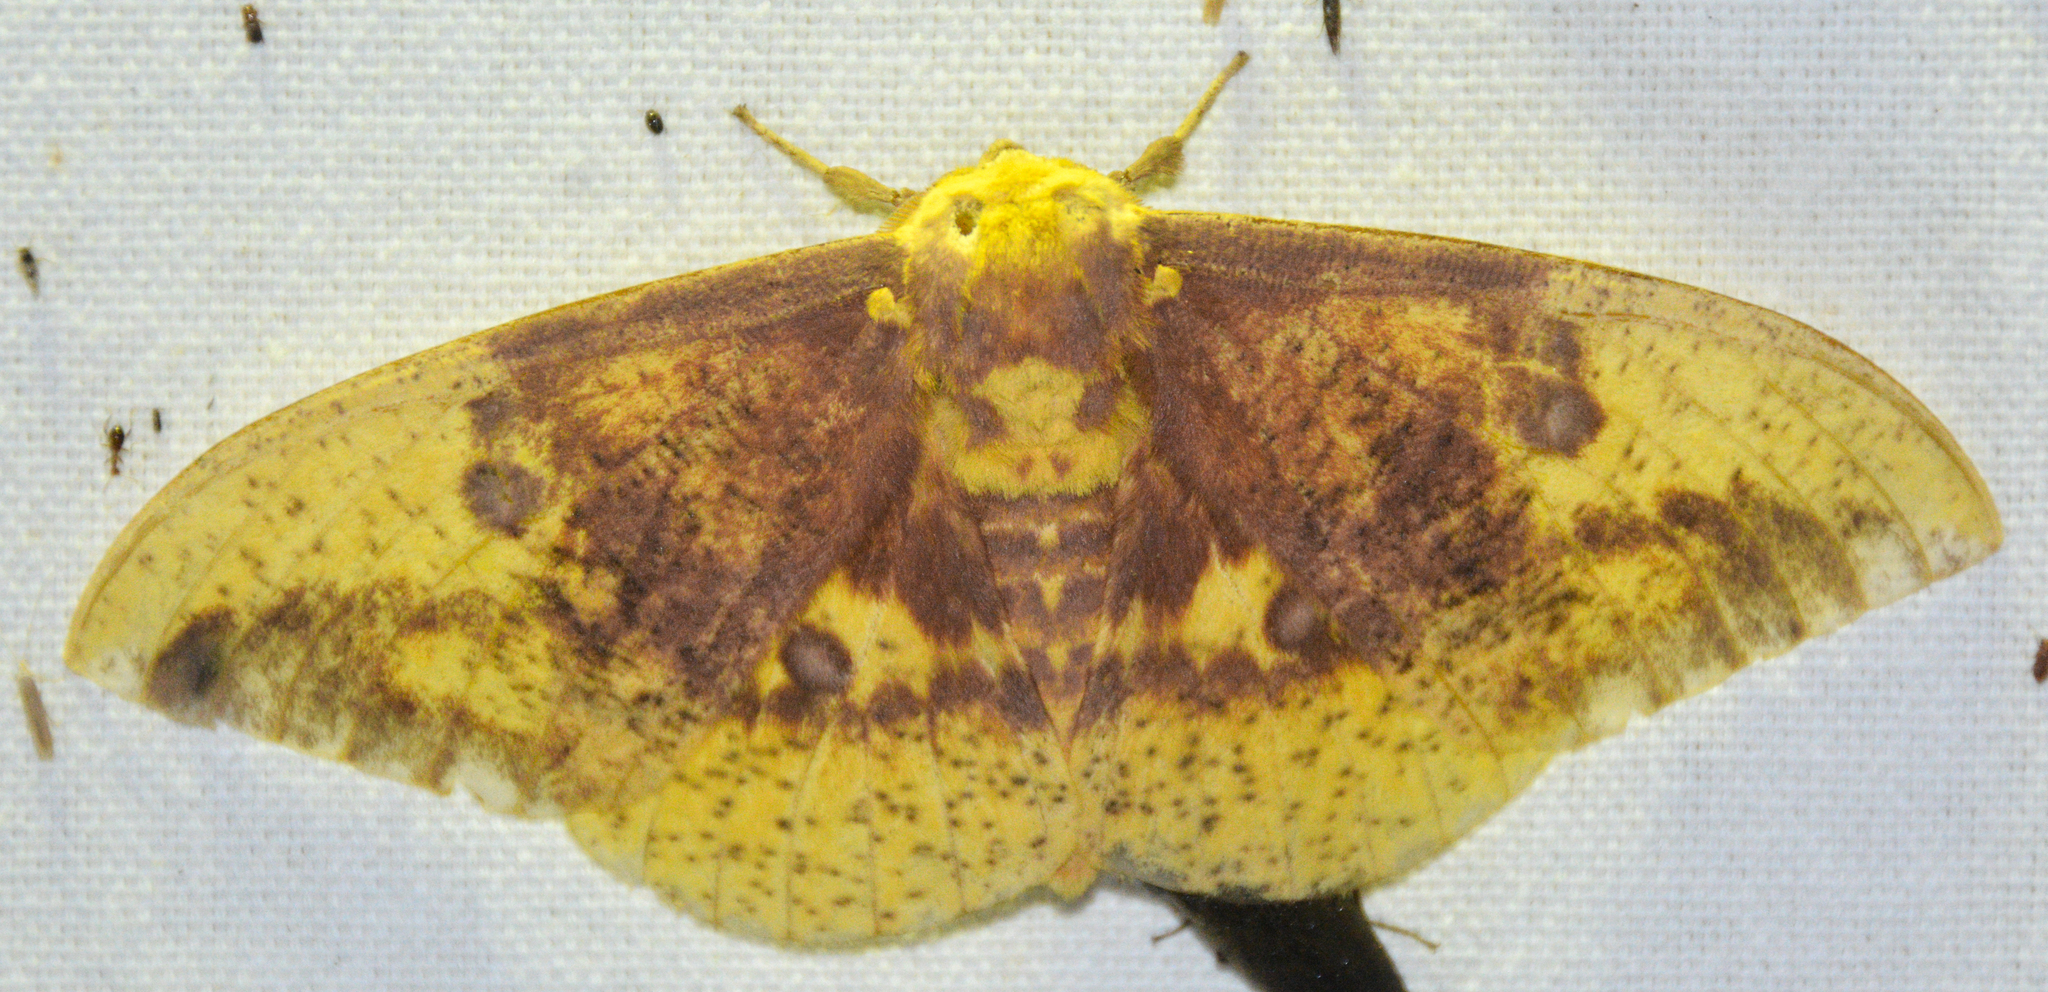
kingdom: Animalia
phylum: Arthropoda
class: Insecta
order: Lepidoptera
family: Saturniidae
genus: Eacles
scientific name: Eacles imperialis
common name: Imperial moth
